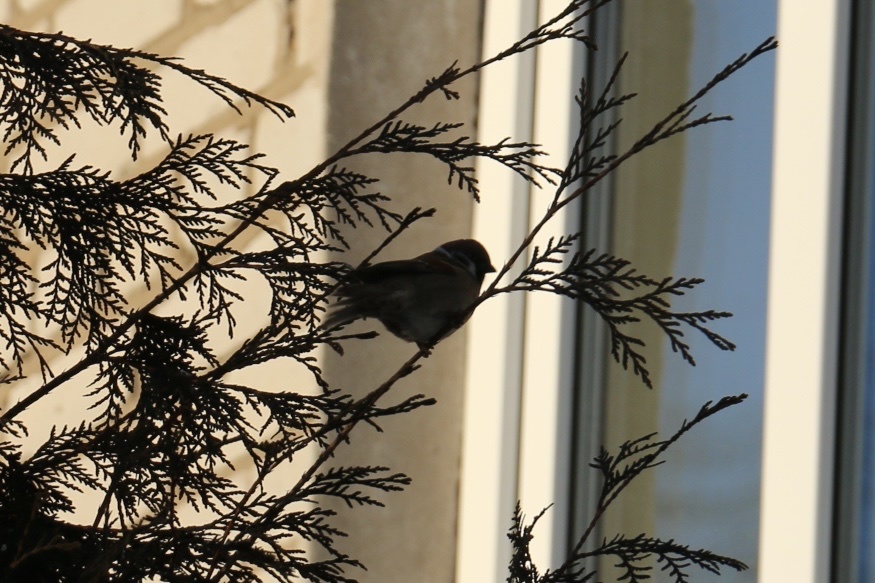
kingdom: Animalia
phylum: Chordata
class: Aves
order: Passeriformes
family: Passeridae
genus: Passer
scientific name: Passer montanus
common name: Eurasian tree sparrow
